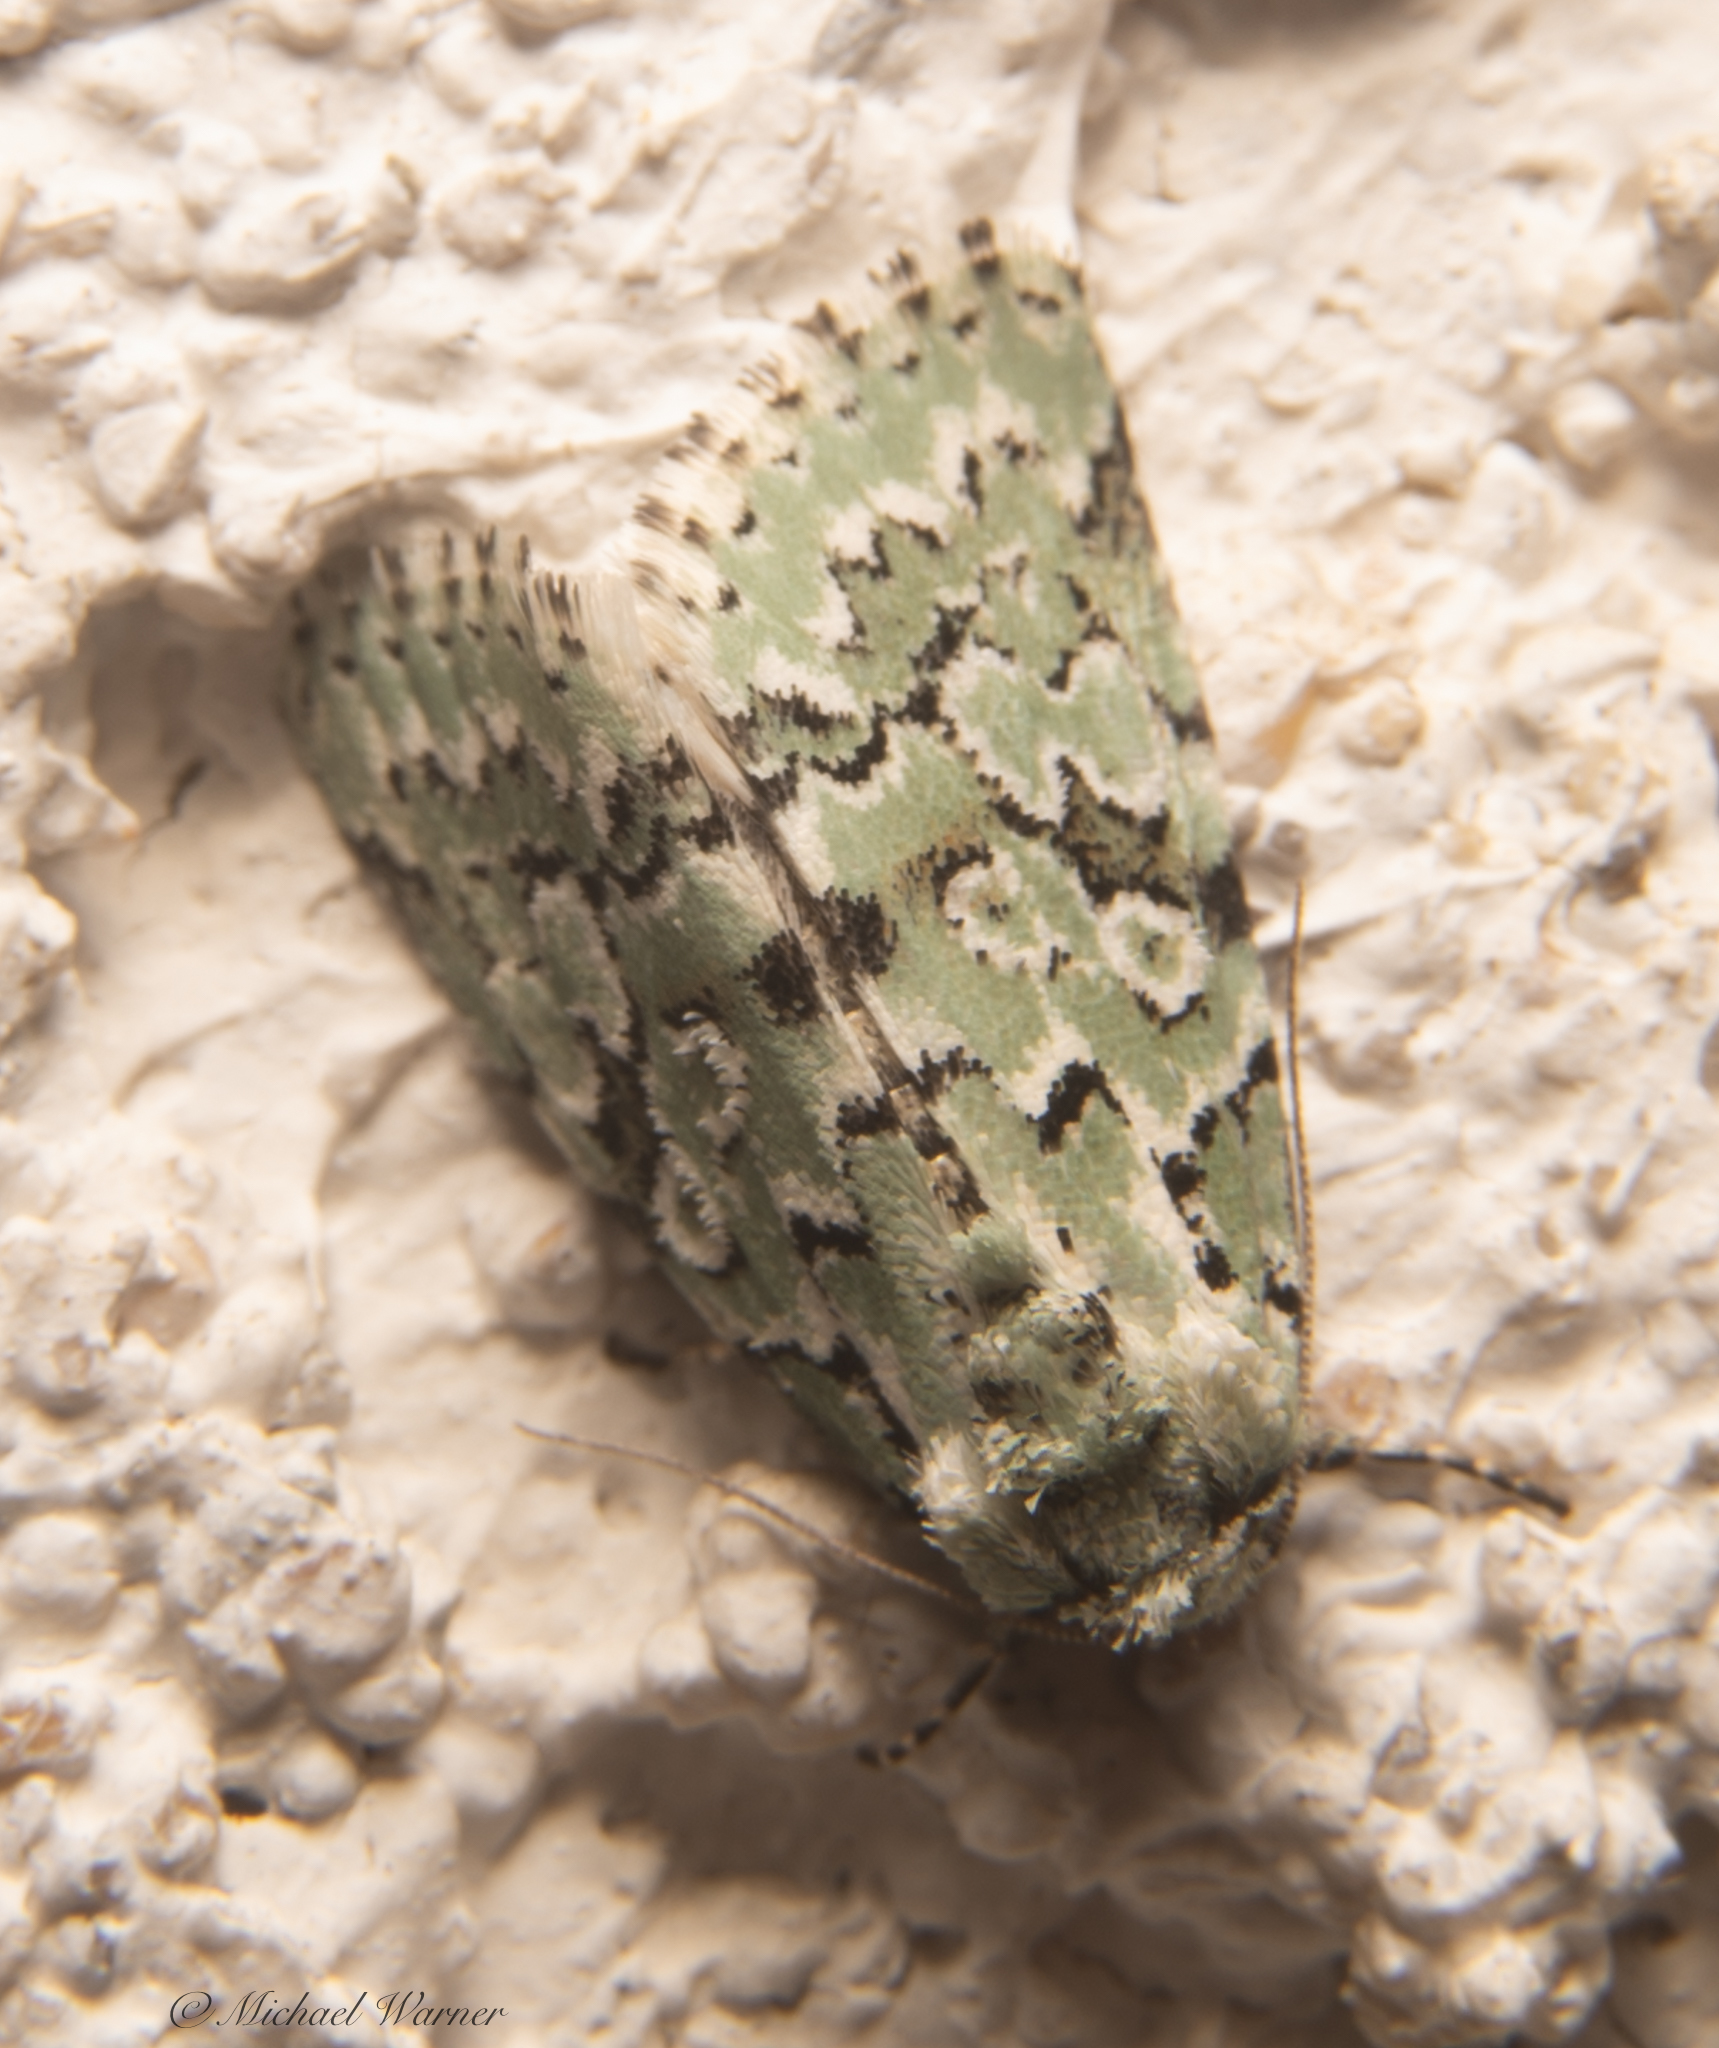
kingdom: Animalia
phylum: Arthropoda
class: Insecta
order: Lepidoptera
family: Noctuidae
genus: Bryolymnia
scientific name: Bryolymnia viridata
